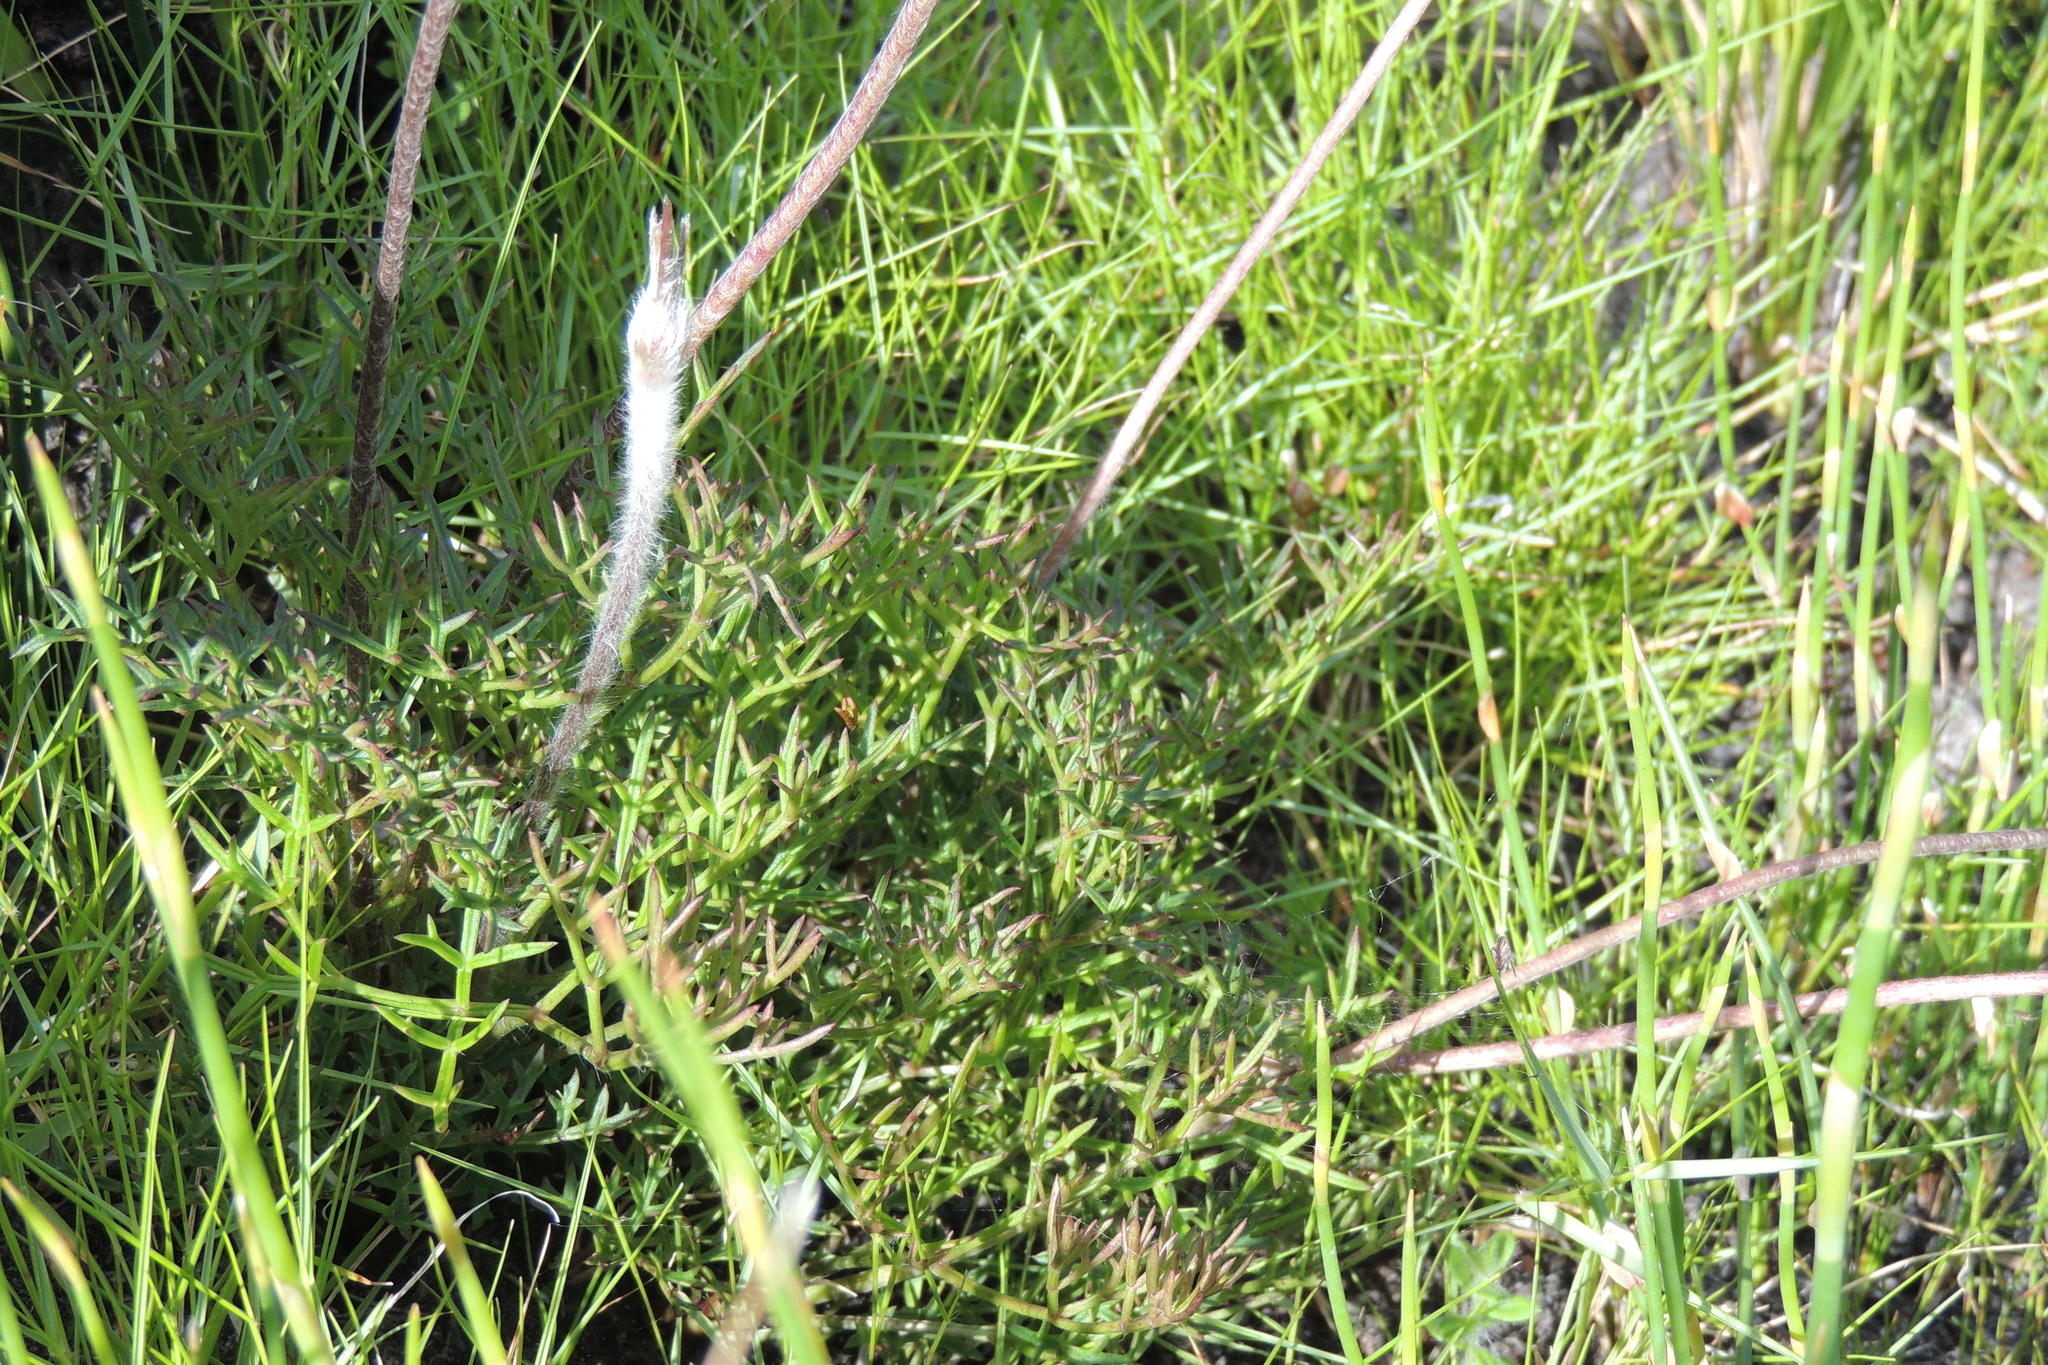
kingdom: Plantae
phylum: Tracheophyta
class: Magnoliopsida
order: Ranunculales
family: Ranunculaceae
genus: Knowltonia
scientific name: Knowltonia tenuifolia
